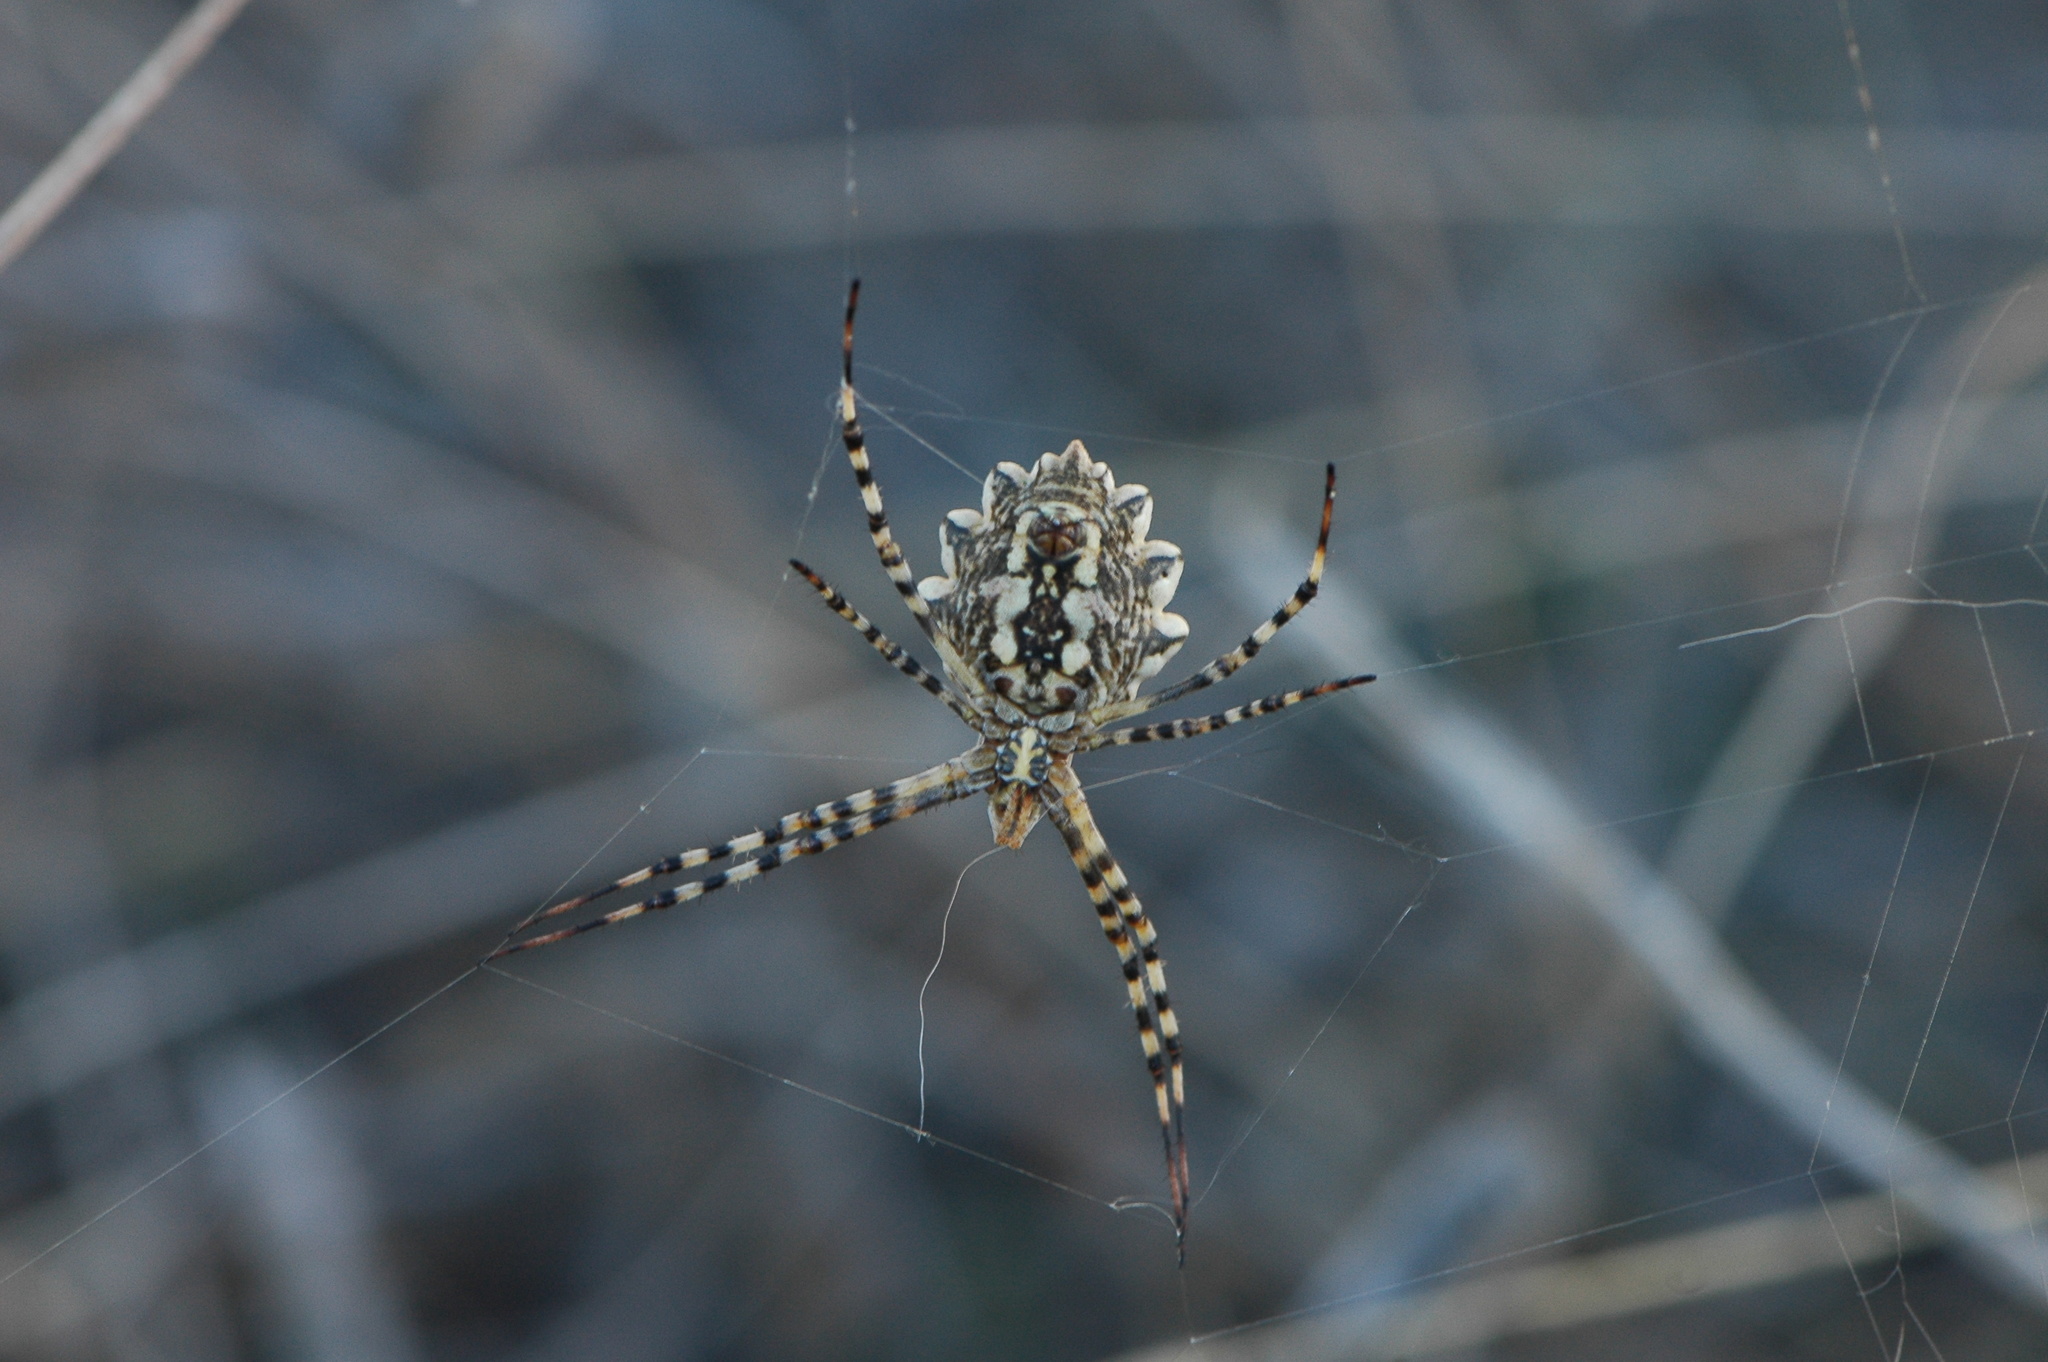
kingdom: Animalia
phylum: Arthropoda
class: Arachnida
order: Araneae
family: Araneidae
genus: Argiope
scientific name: Argiope lobata
